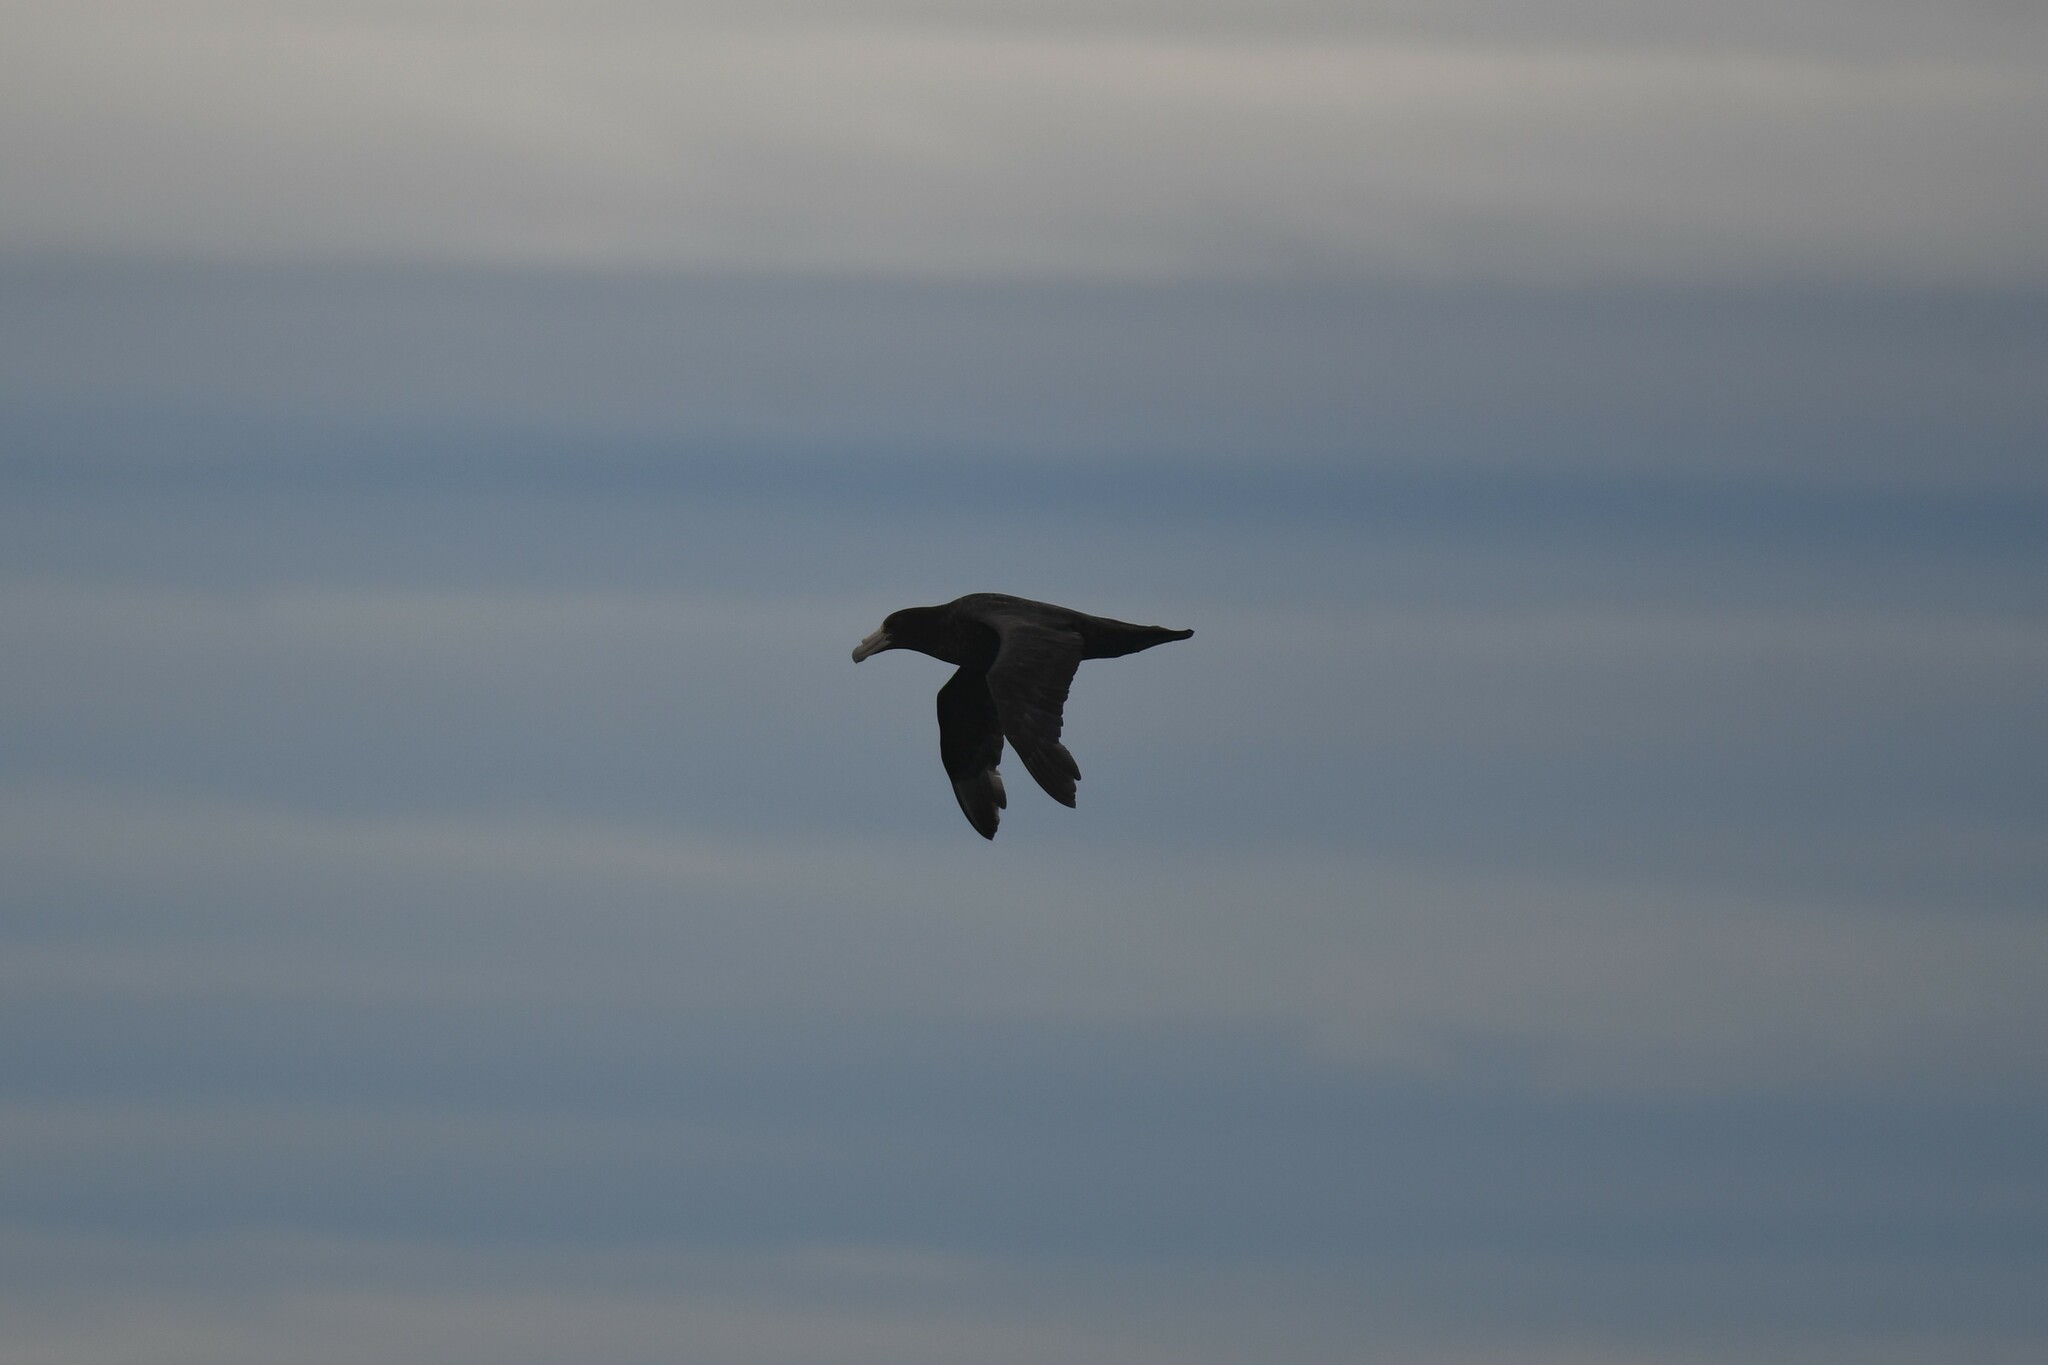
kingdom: Animalia
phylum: Chordata
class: Aves
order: Procellariiformes
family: Procellariidae
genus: Macronectes
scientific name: Macronectes giganteus
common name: Southern giant petrel
